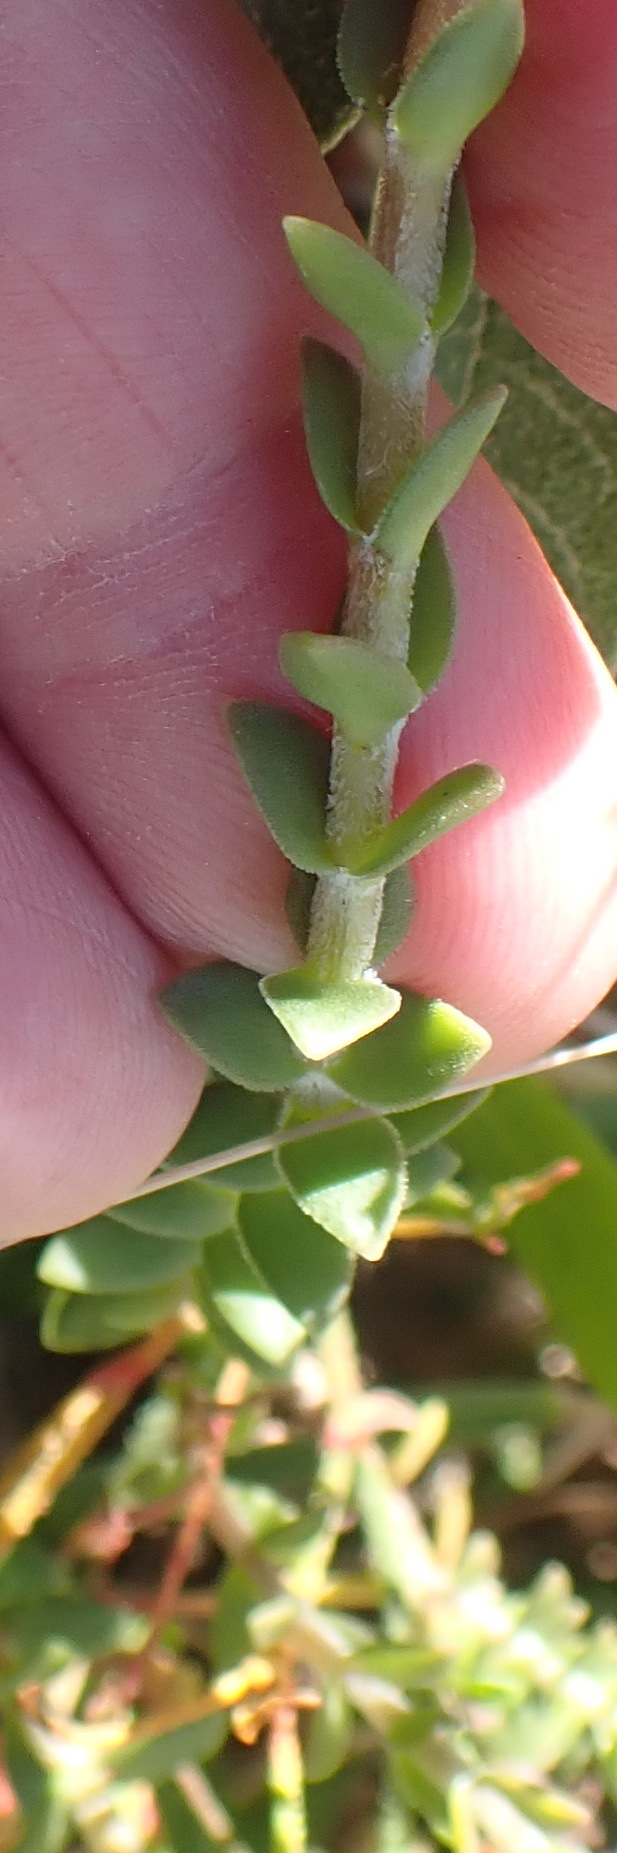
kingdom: Plantae
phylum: Tracheophyta
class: Magnoliopsida
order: Saxifragales
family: Crassulaceae
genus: Crassula
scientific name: Crassula subulata
